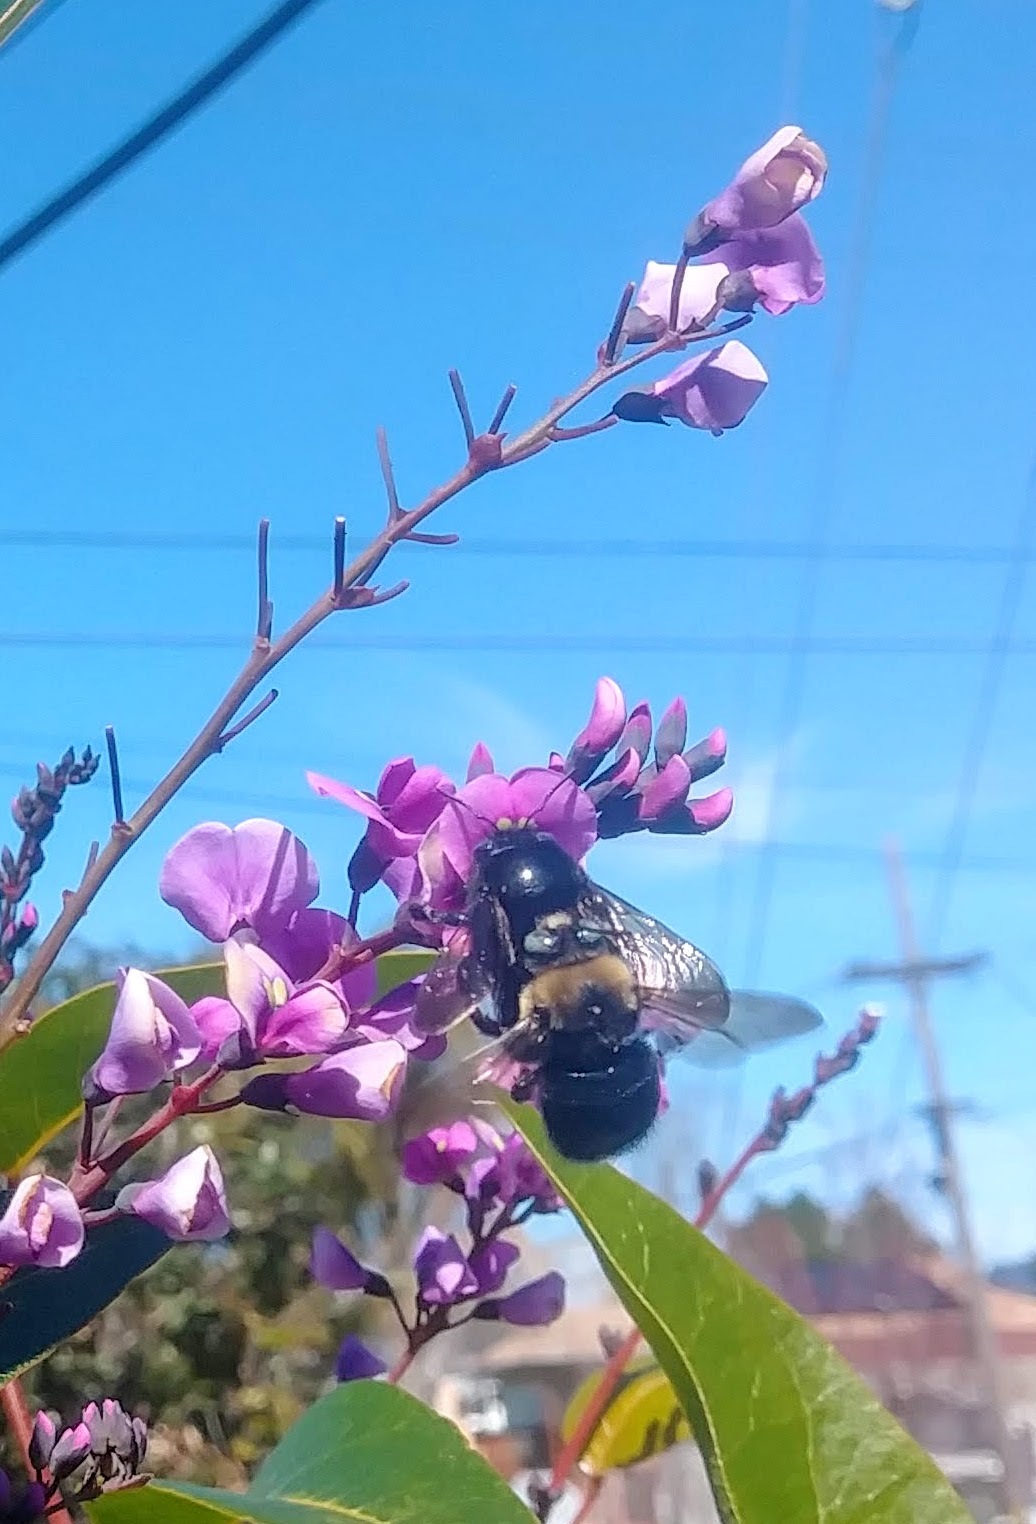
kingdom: Animalia
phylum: Arthropoda
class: Insecta
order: Hymenoptera
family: Apidae
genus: Xylocopa
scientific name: Xylocopa tabaniformis
